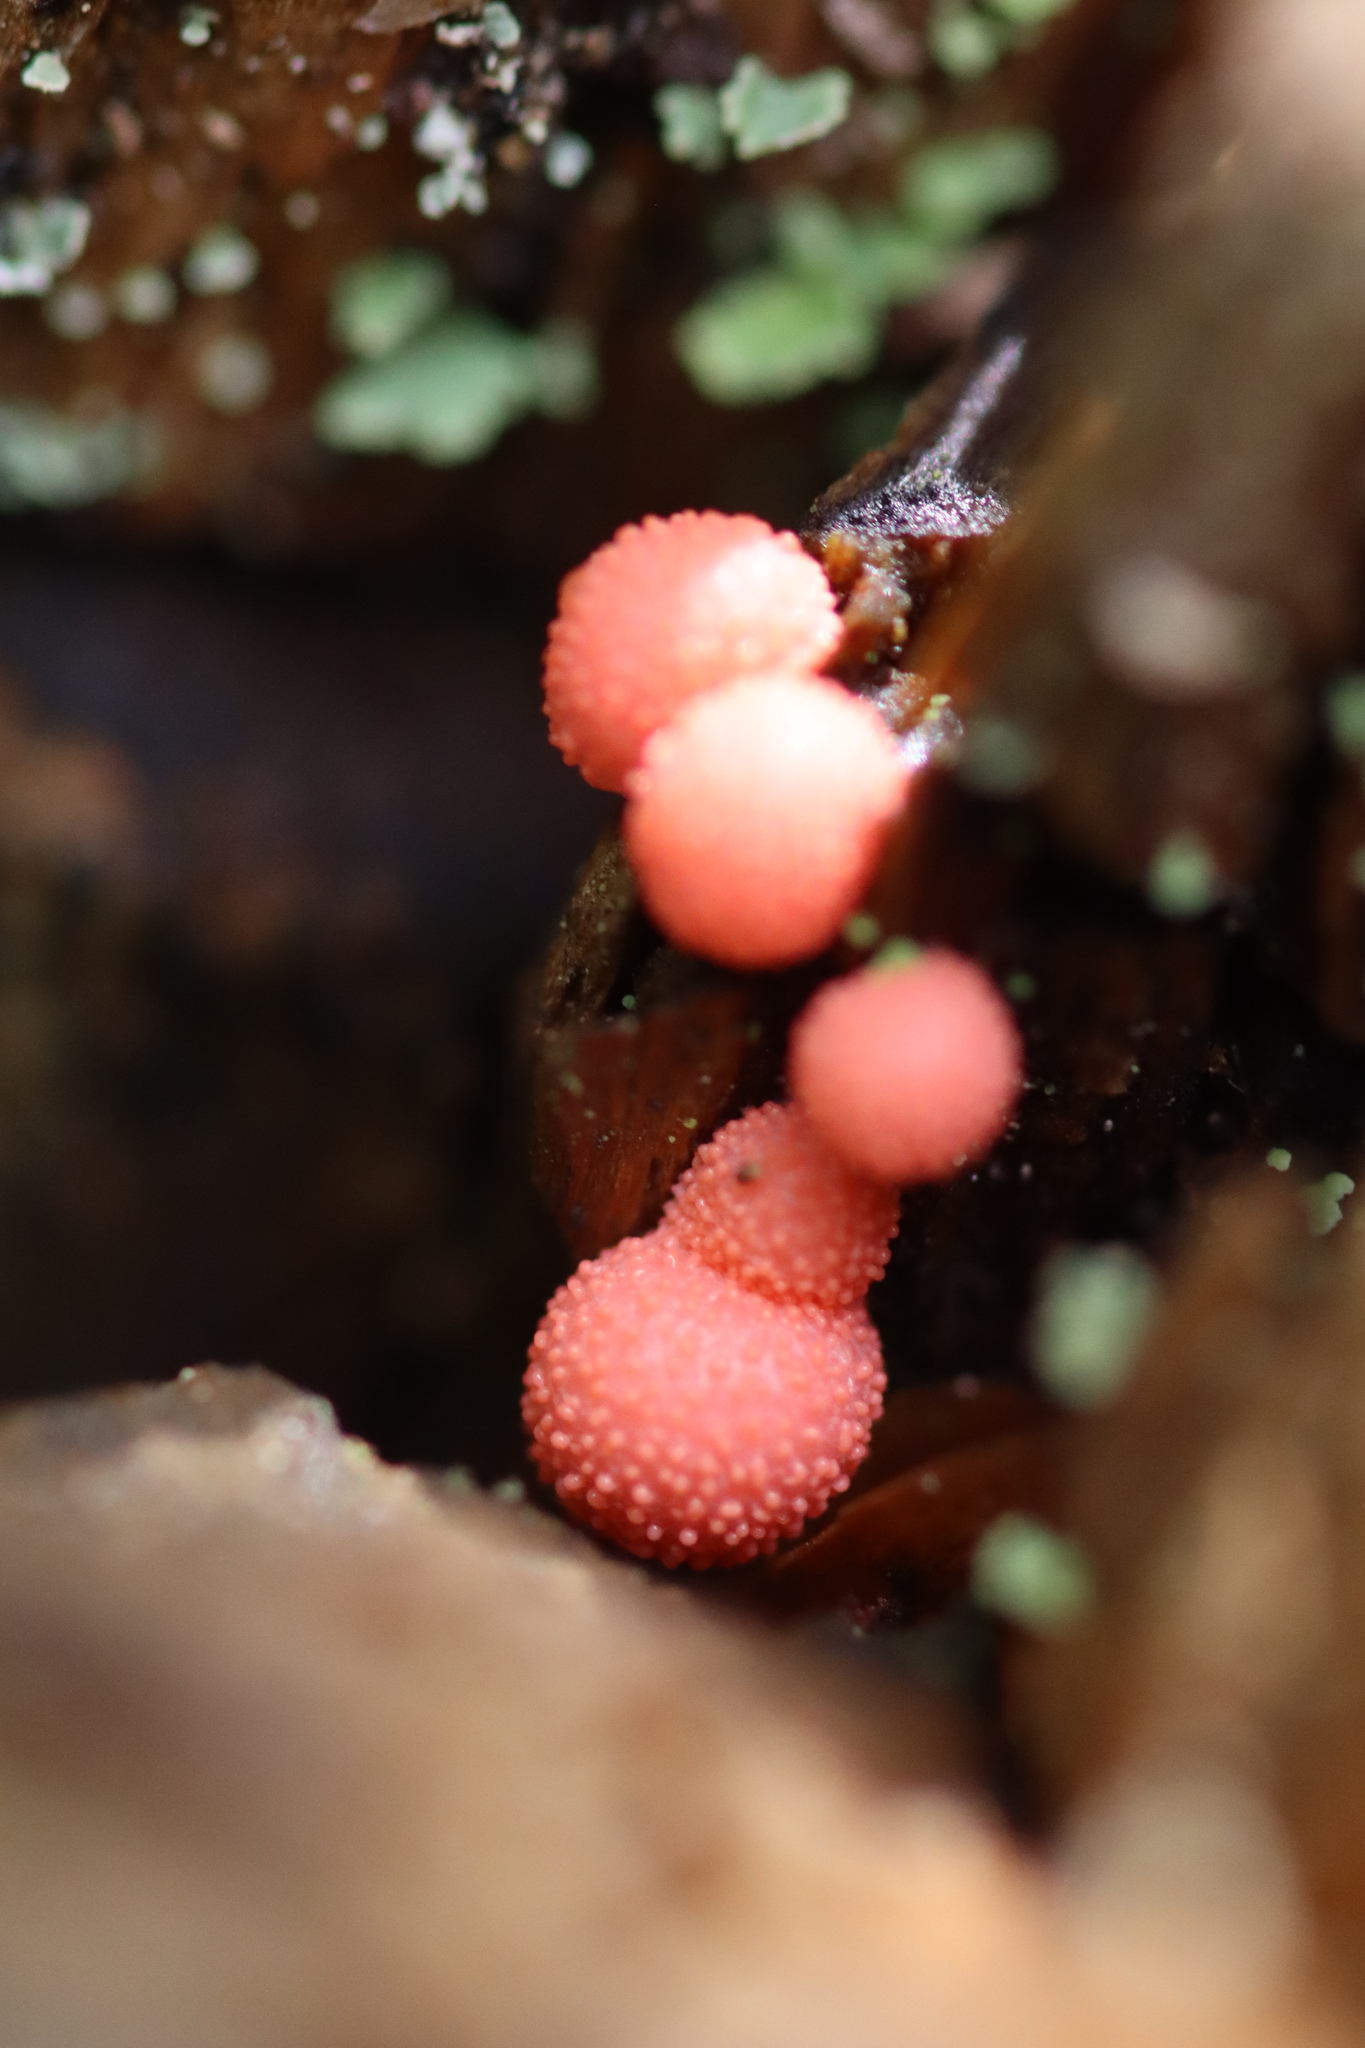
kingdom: Protozoa
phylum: Mycetozoa
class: Myxomycetes
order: Cribrariales
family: Tubiferaceae
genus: Lycogala
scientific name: Lycogala epidendrum
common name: Wolf's milk
